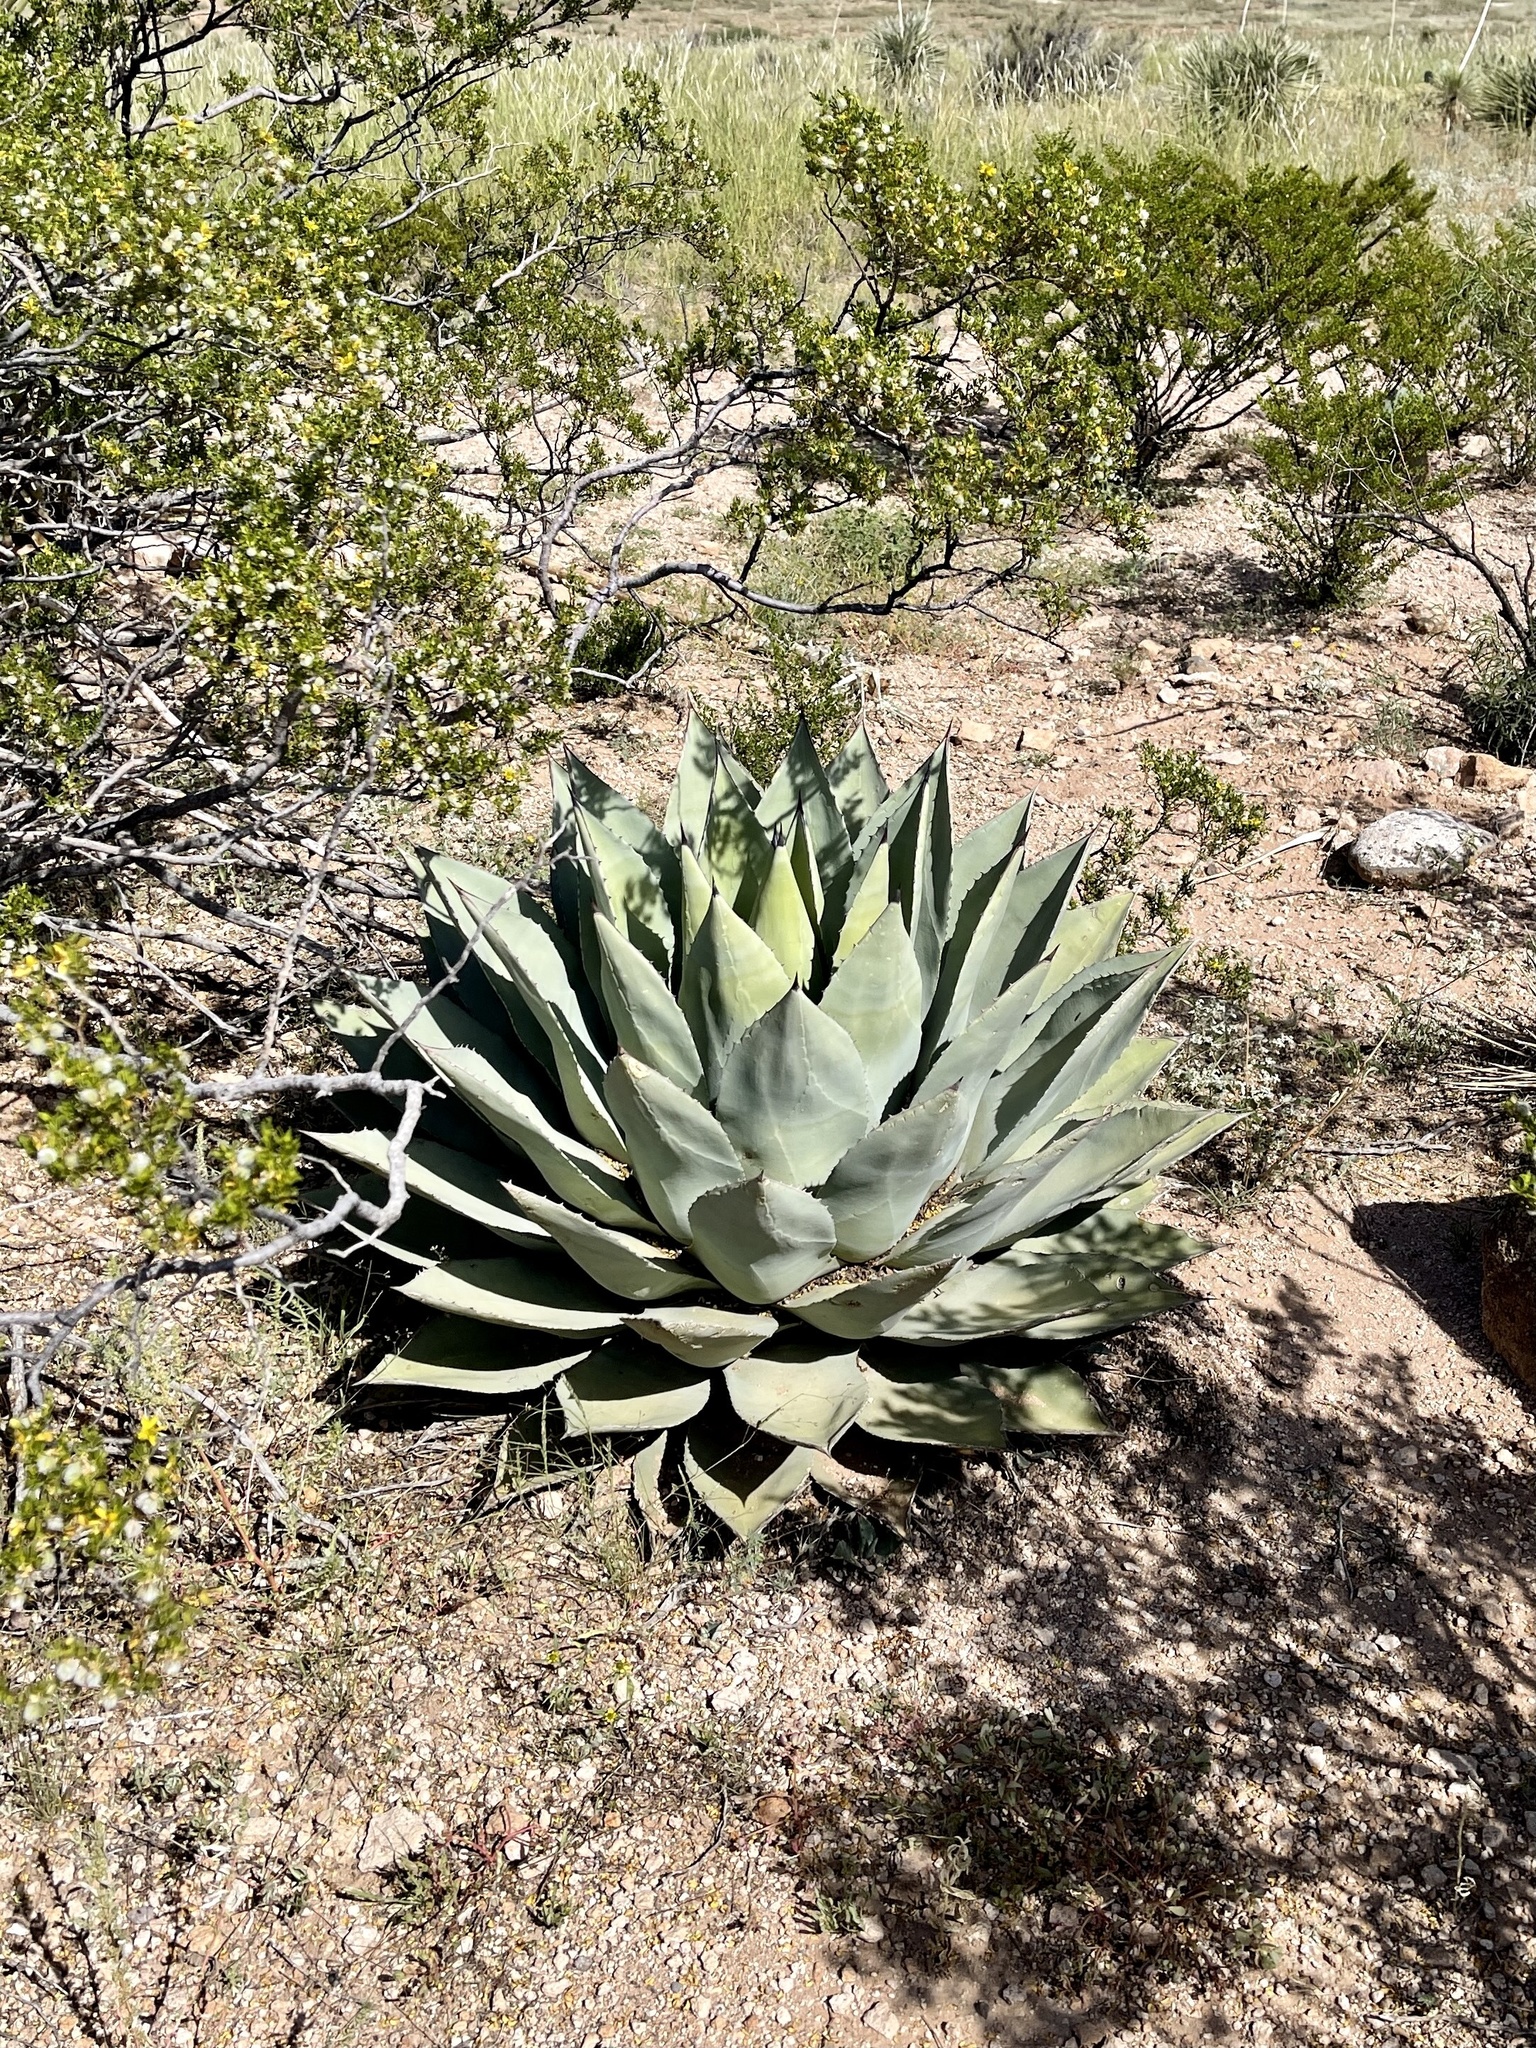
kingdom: Plantae
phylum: Tracheophyta
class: Liliopsida
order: Asparagales
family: Asparagaceae
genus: Agave
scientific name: Agave parryi
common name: Parry's agave
